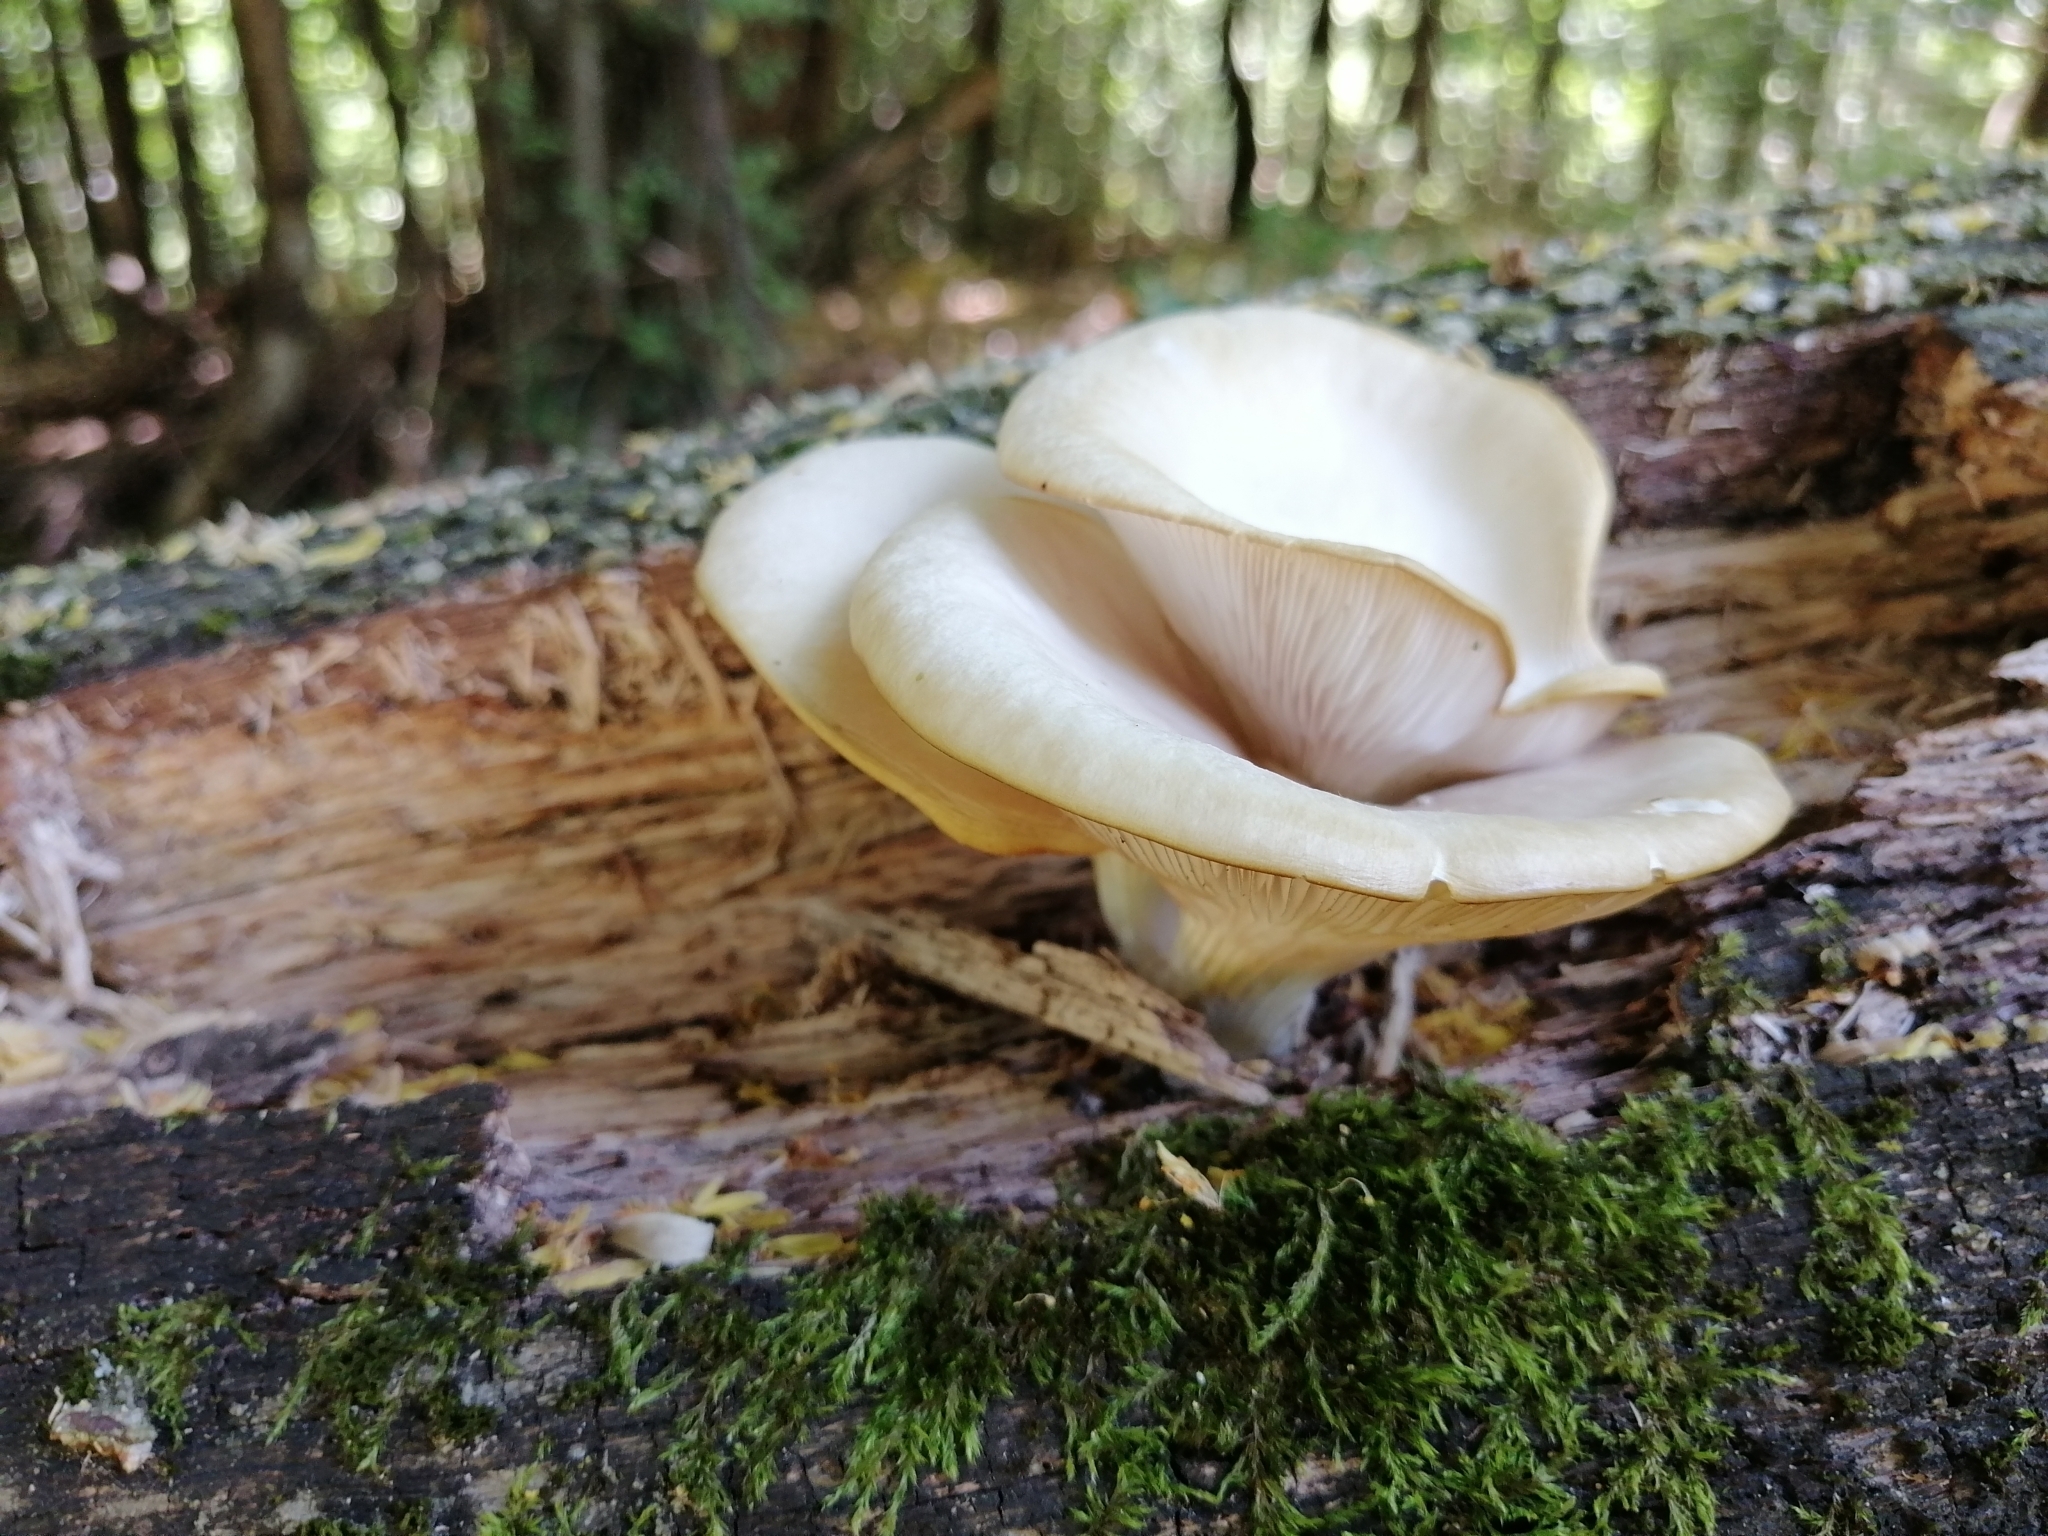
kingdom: Fungi
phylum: Basidiomycota
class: Agaricomycetes
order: Agaricales
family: Pleurotaceae
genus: Pleurotus
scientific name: Pleurotus pulmonarius
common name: Pale oyster
